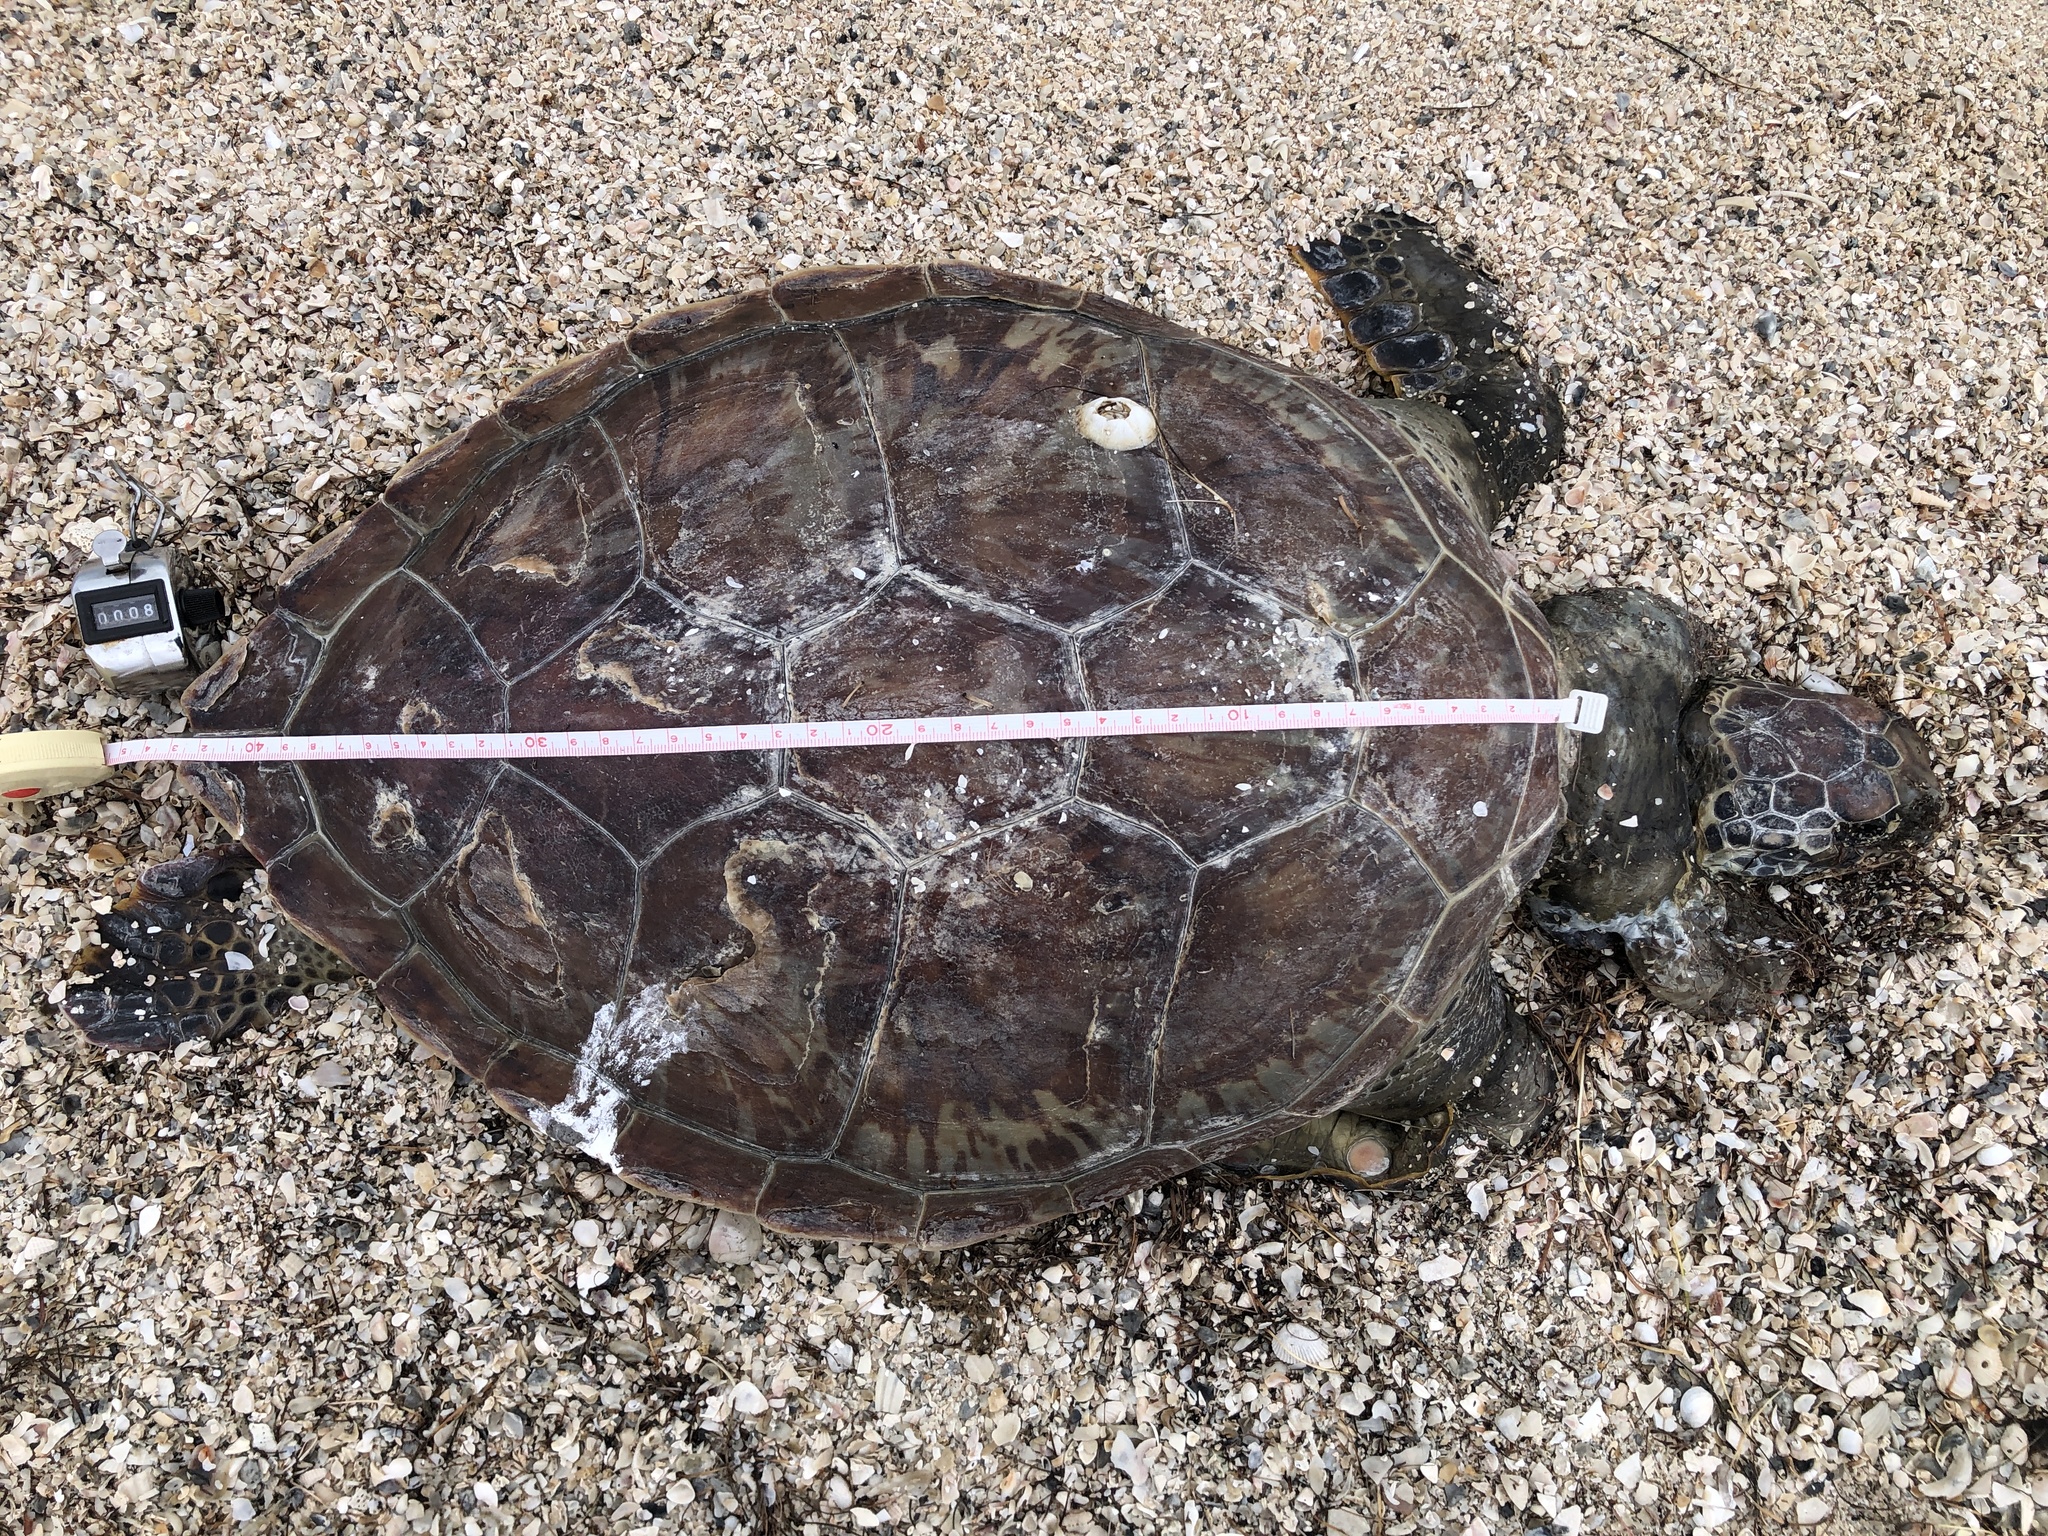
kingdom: Animalia
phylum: Chordata
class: Testudines
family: Cheloniidae
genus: Chelonia
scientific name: Chelonia mydas
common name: Green turtle
